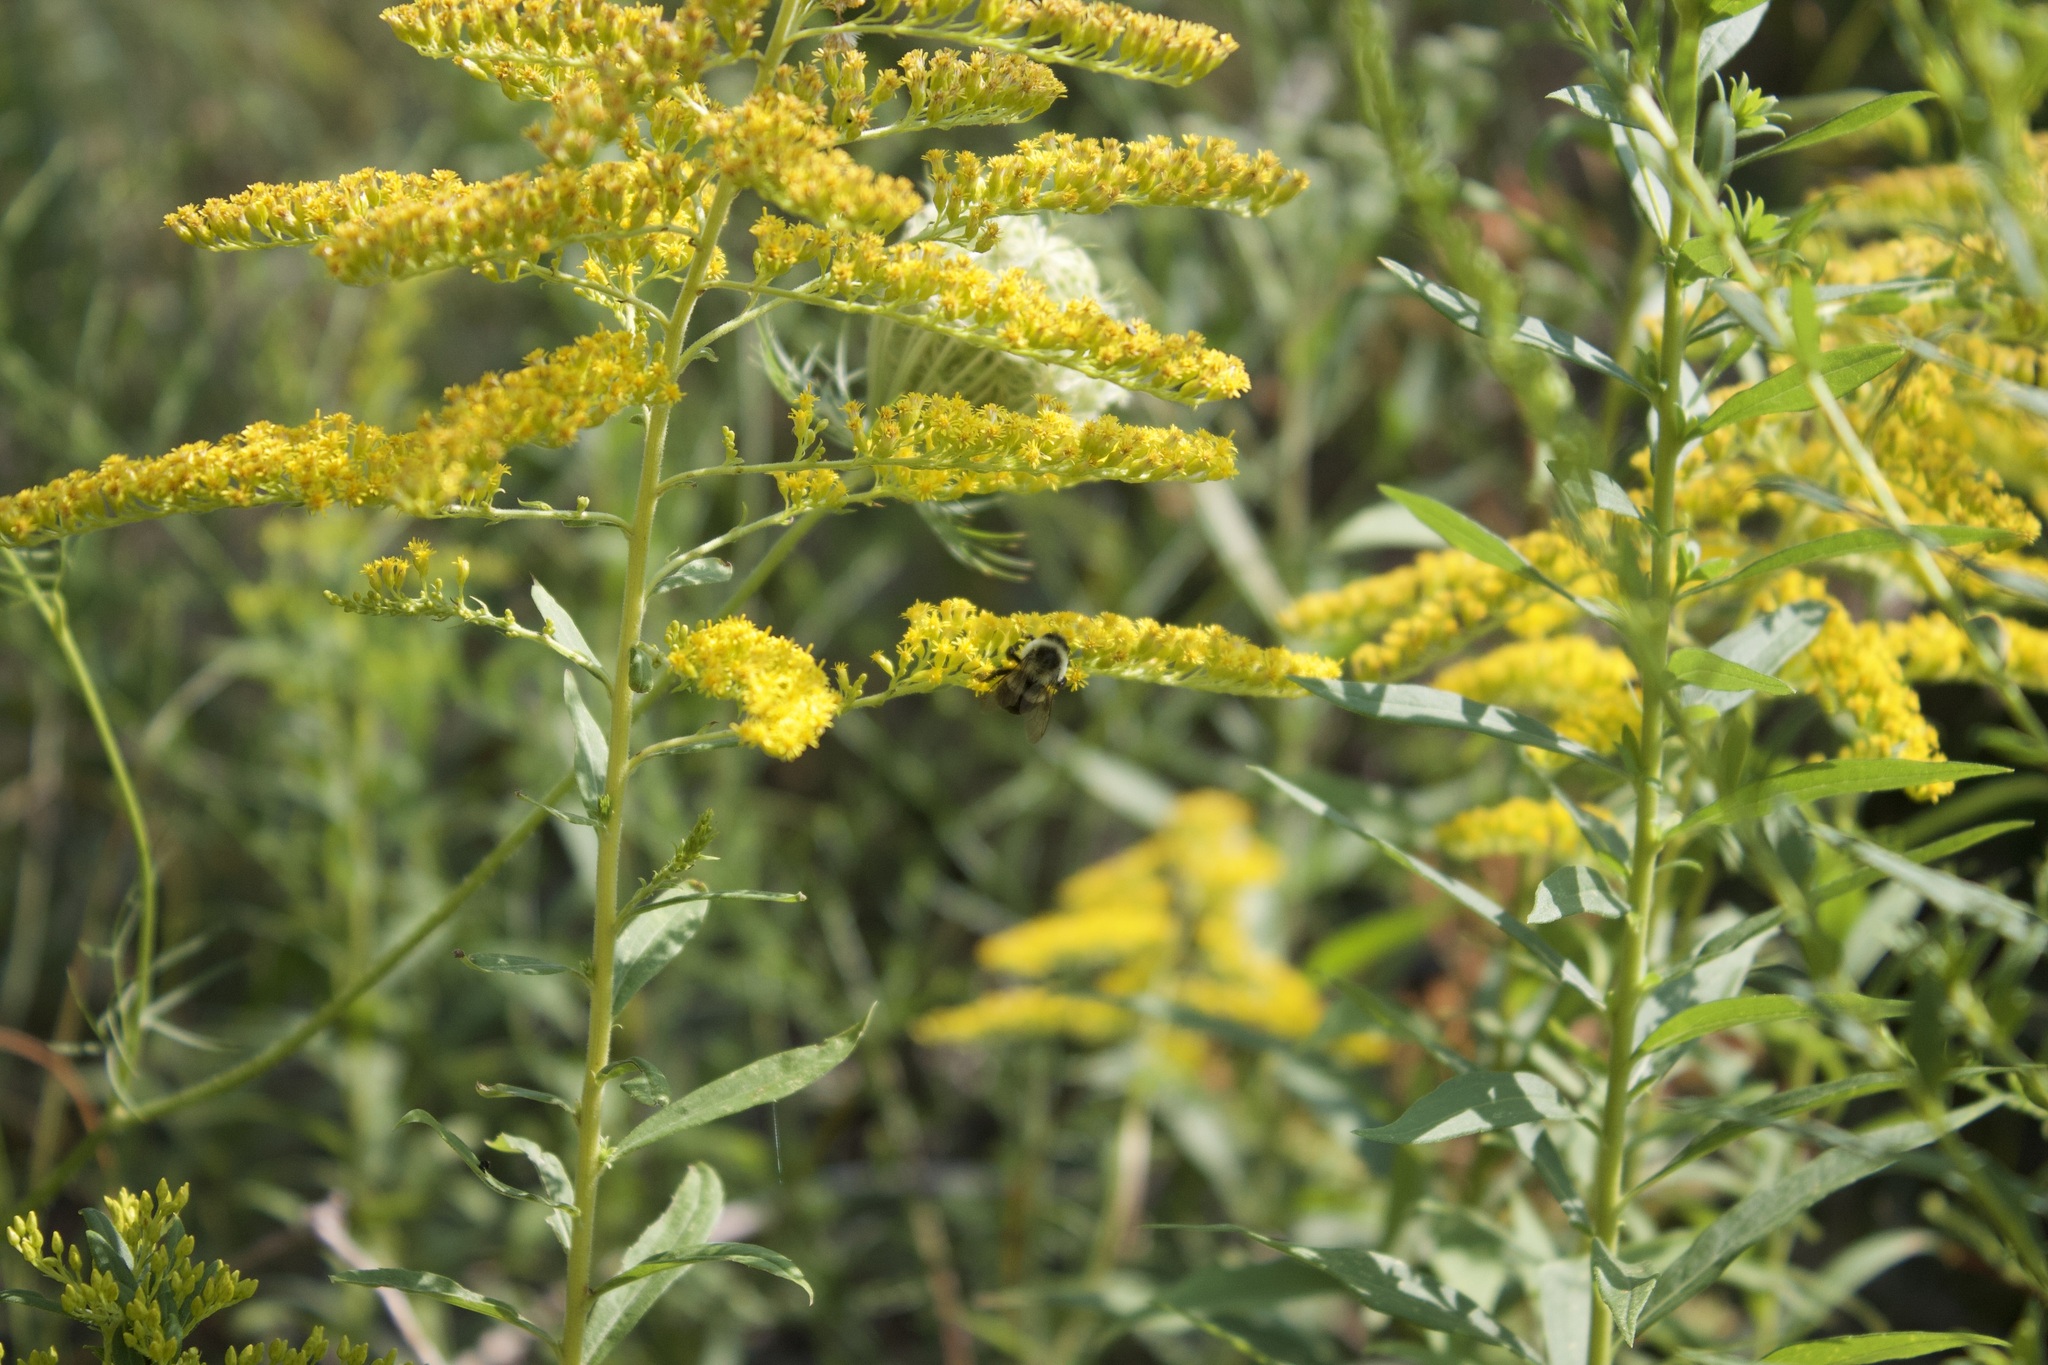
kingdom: Animalia
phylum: Arthropoda
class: Insecta
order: Hymenoptera
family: Apidae
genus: Bombus
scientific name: Bombus impatiens
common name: Common eastern bumble bee
